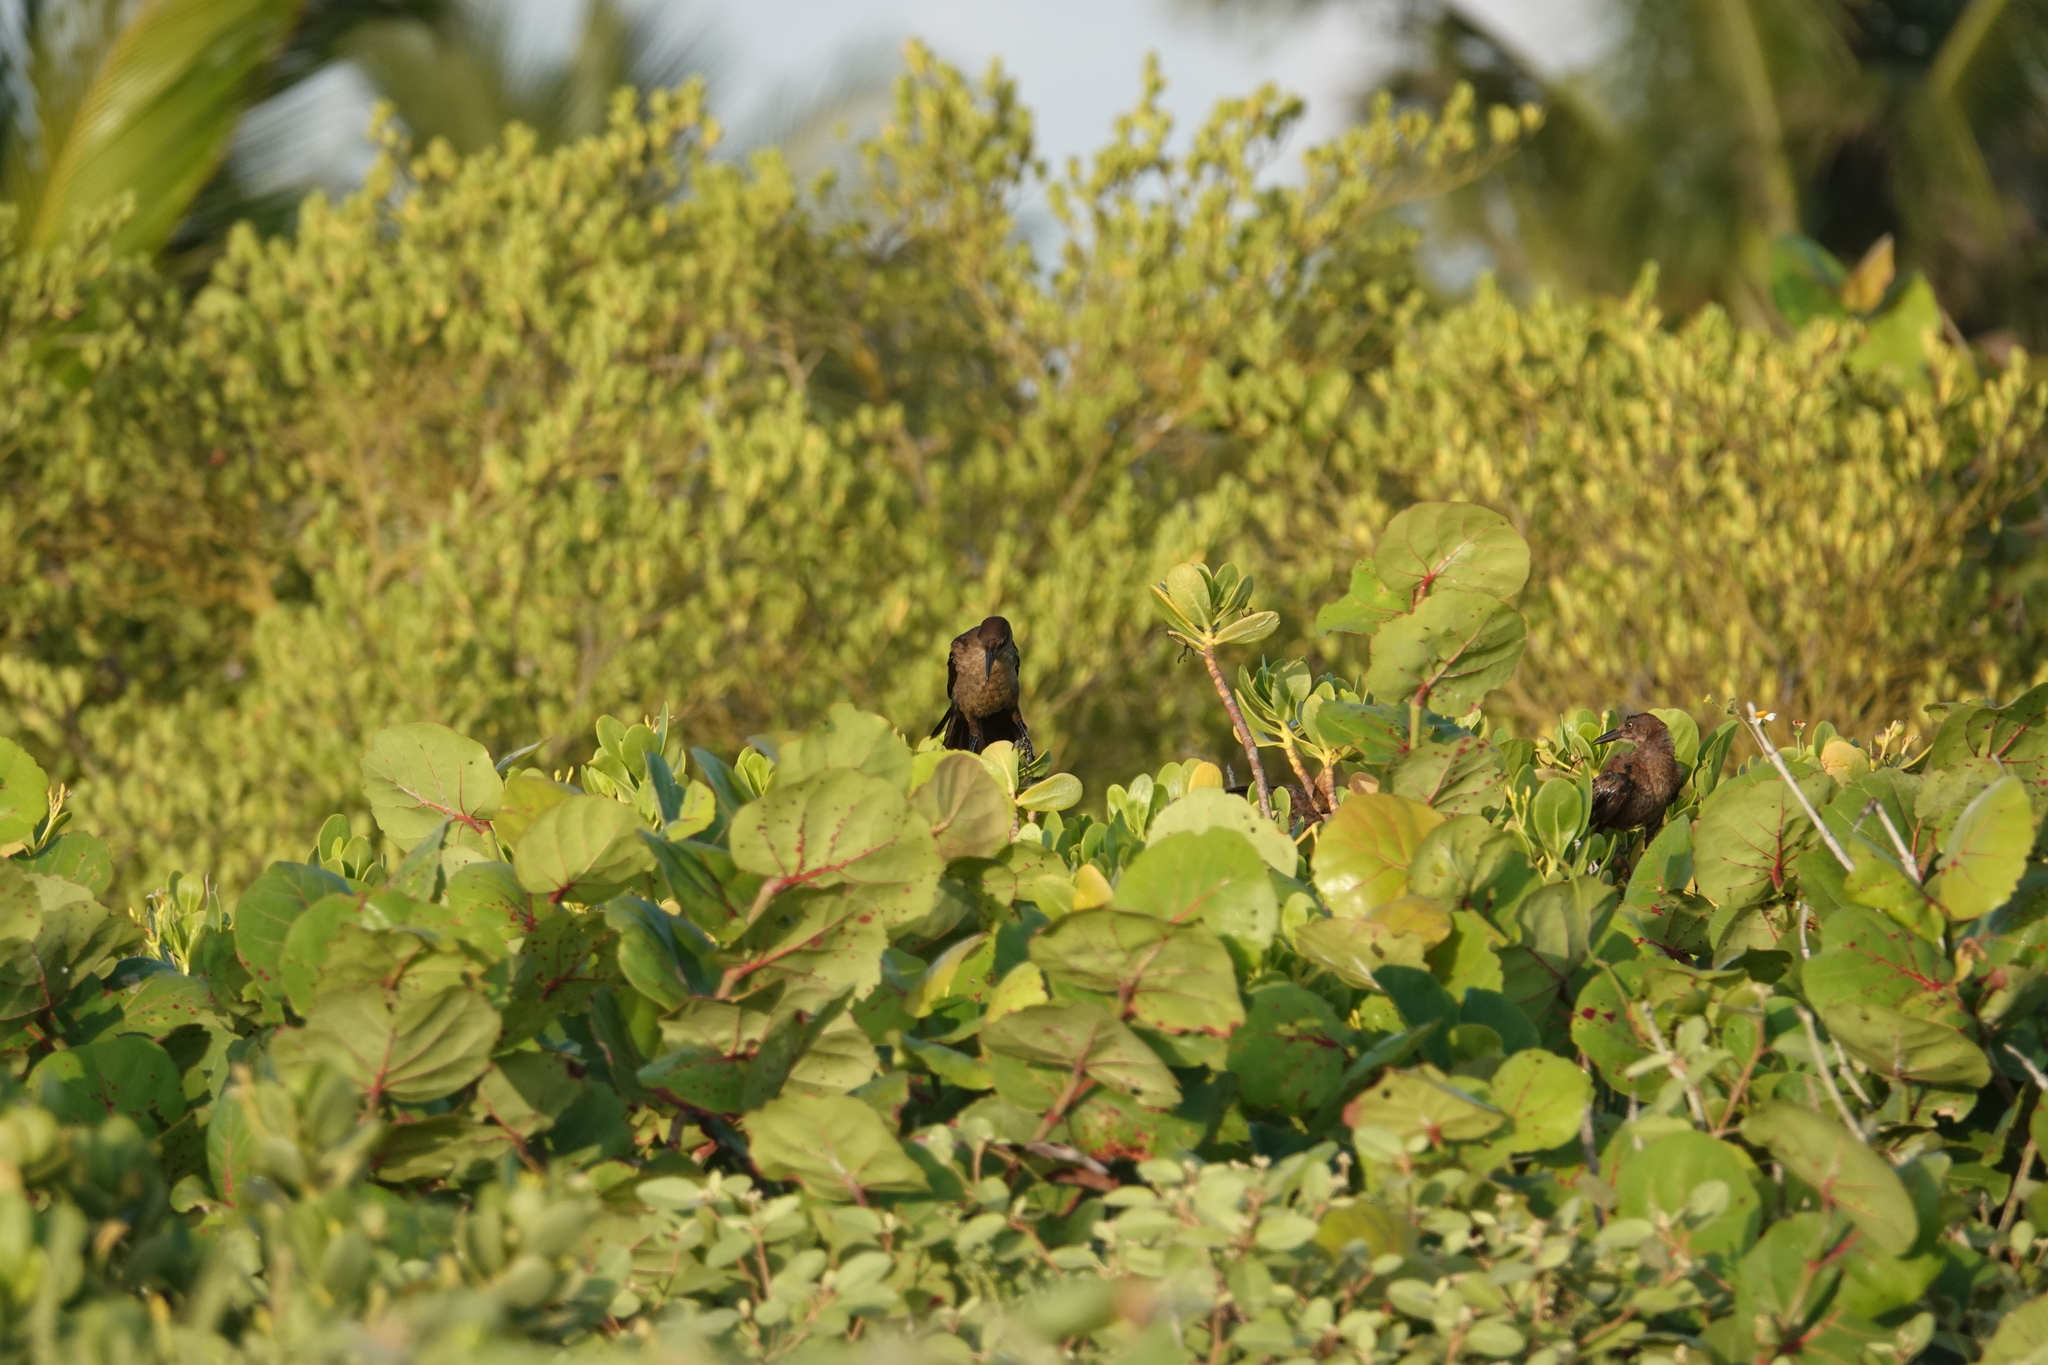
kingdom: Animalia
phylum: Chordata
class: Aves
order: Passeriformes
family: Icteridae
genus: Quiscalus
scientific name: Quiscalus mexicanus
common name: Great-tailed grackle
